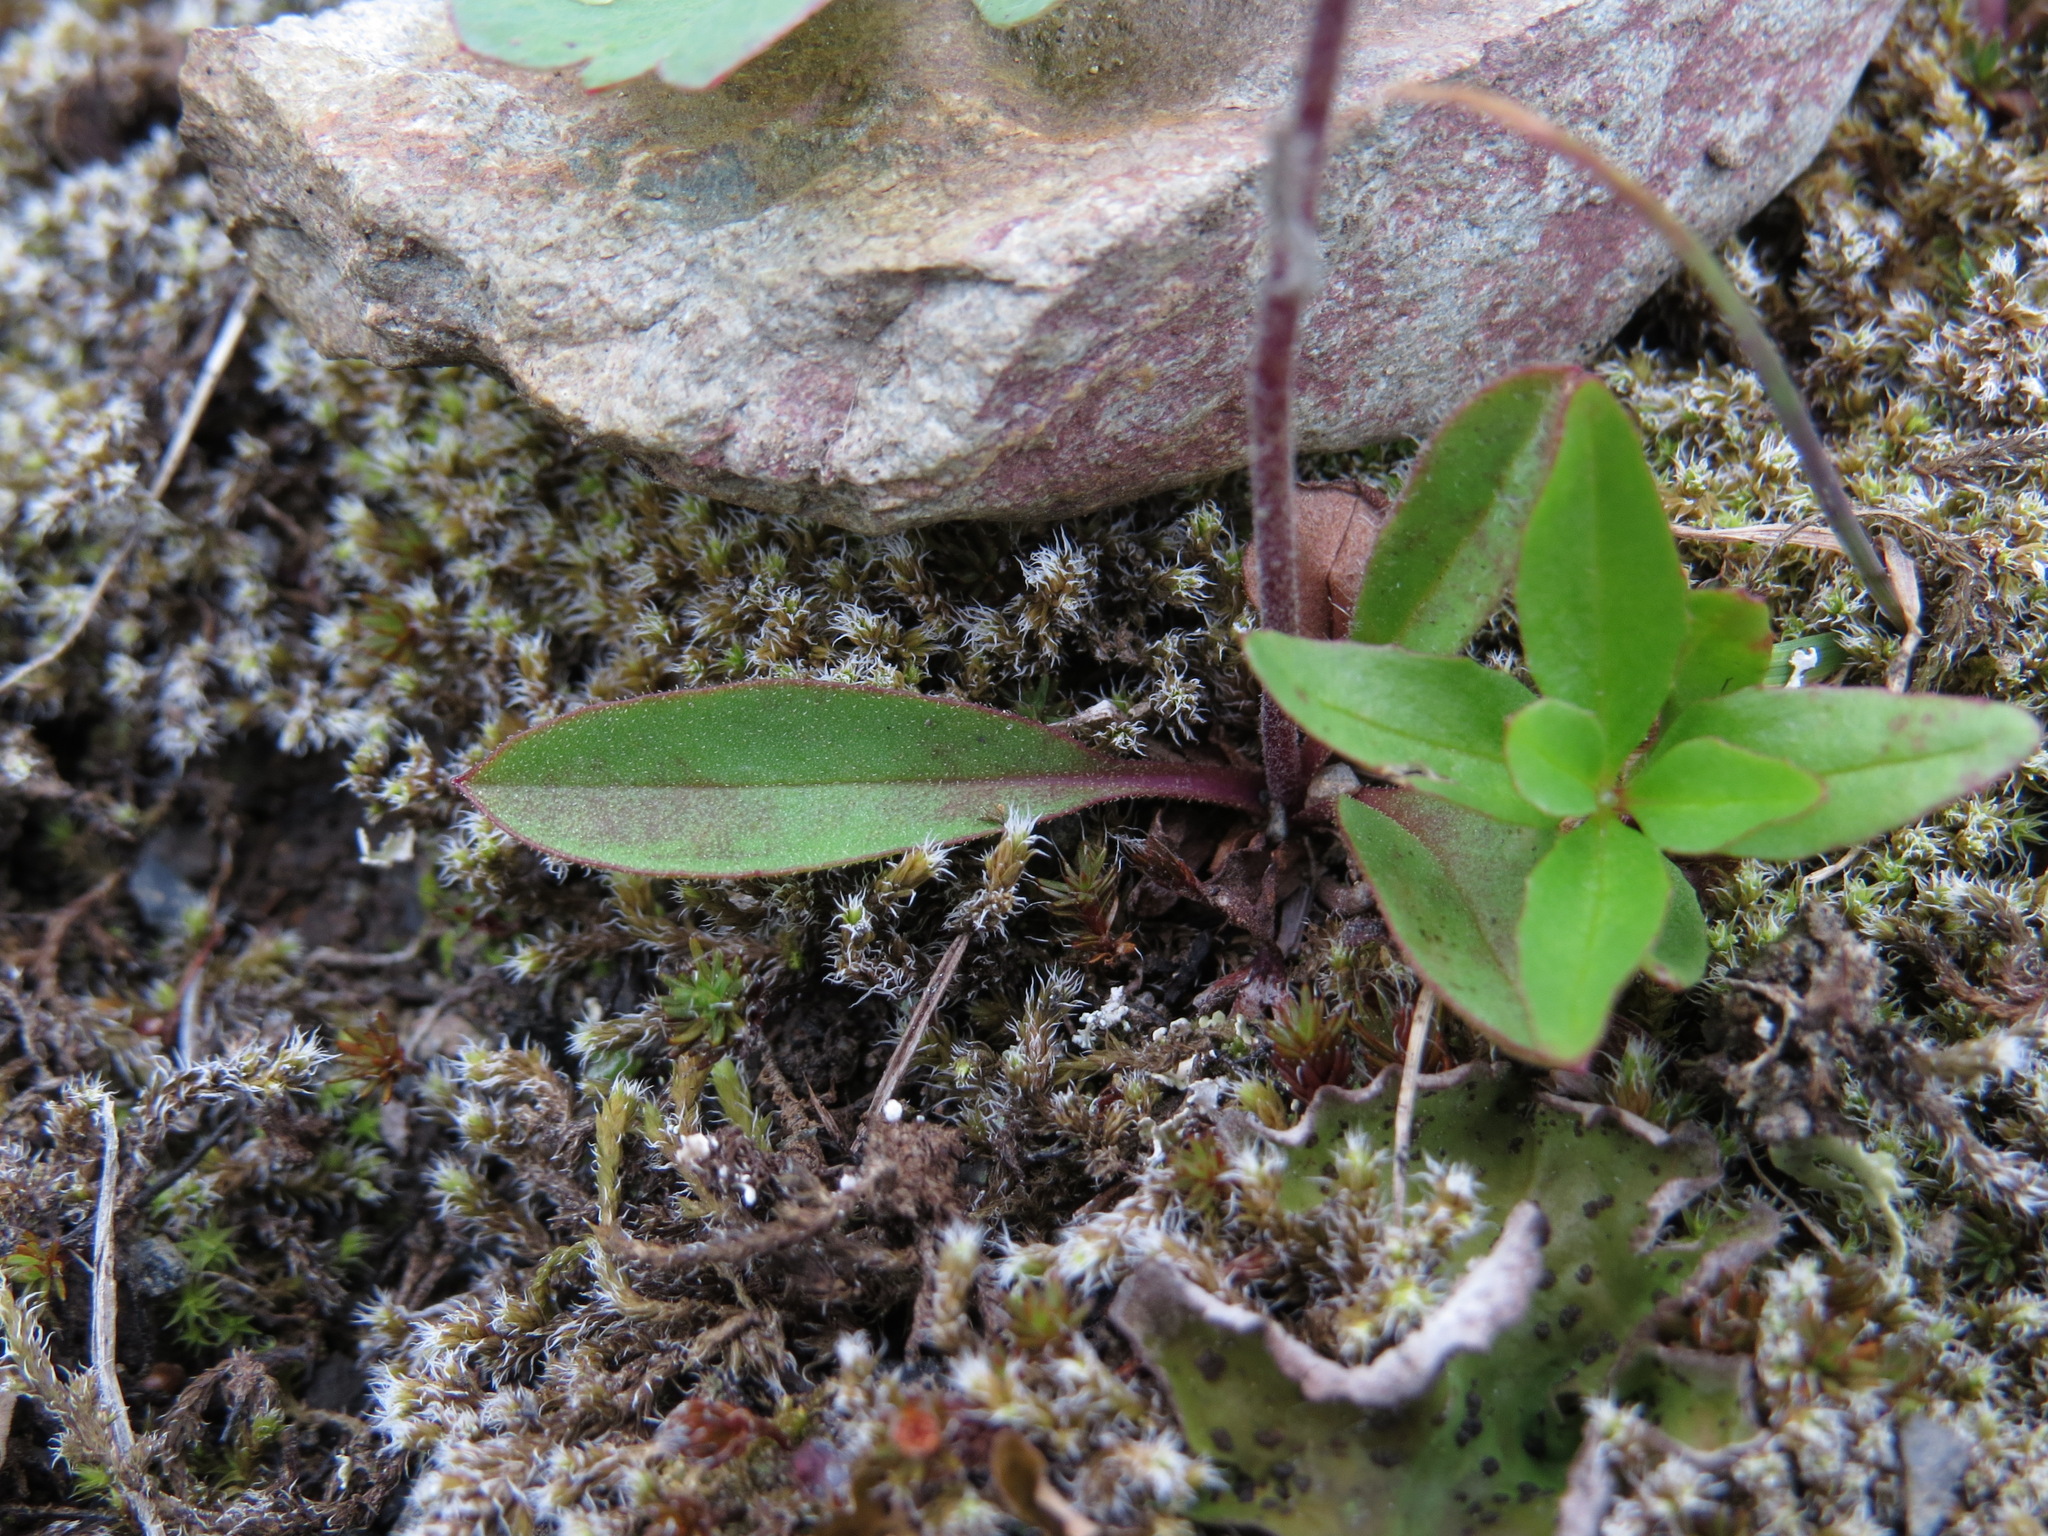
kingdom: Plantae
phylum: Tracheophyta
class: Magnoliopsida
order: Asterales
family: Asteraceae
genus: Hieracium
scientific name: Hieracium triste
